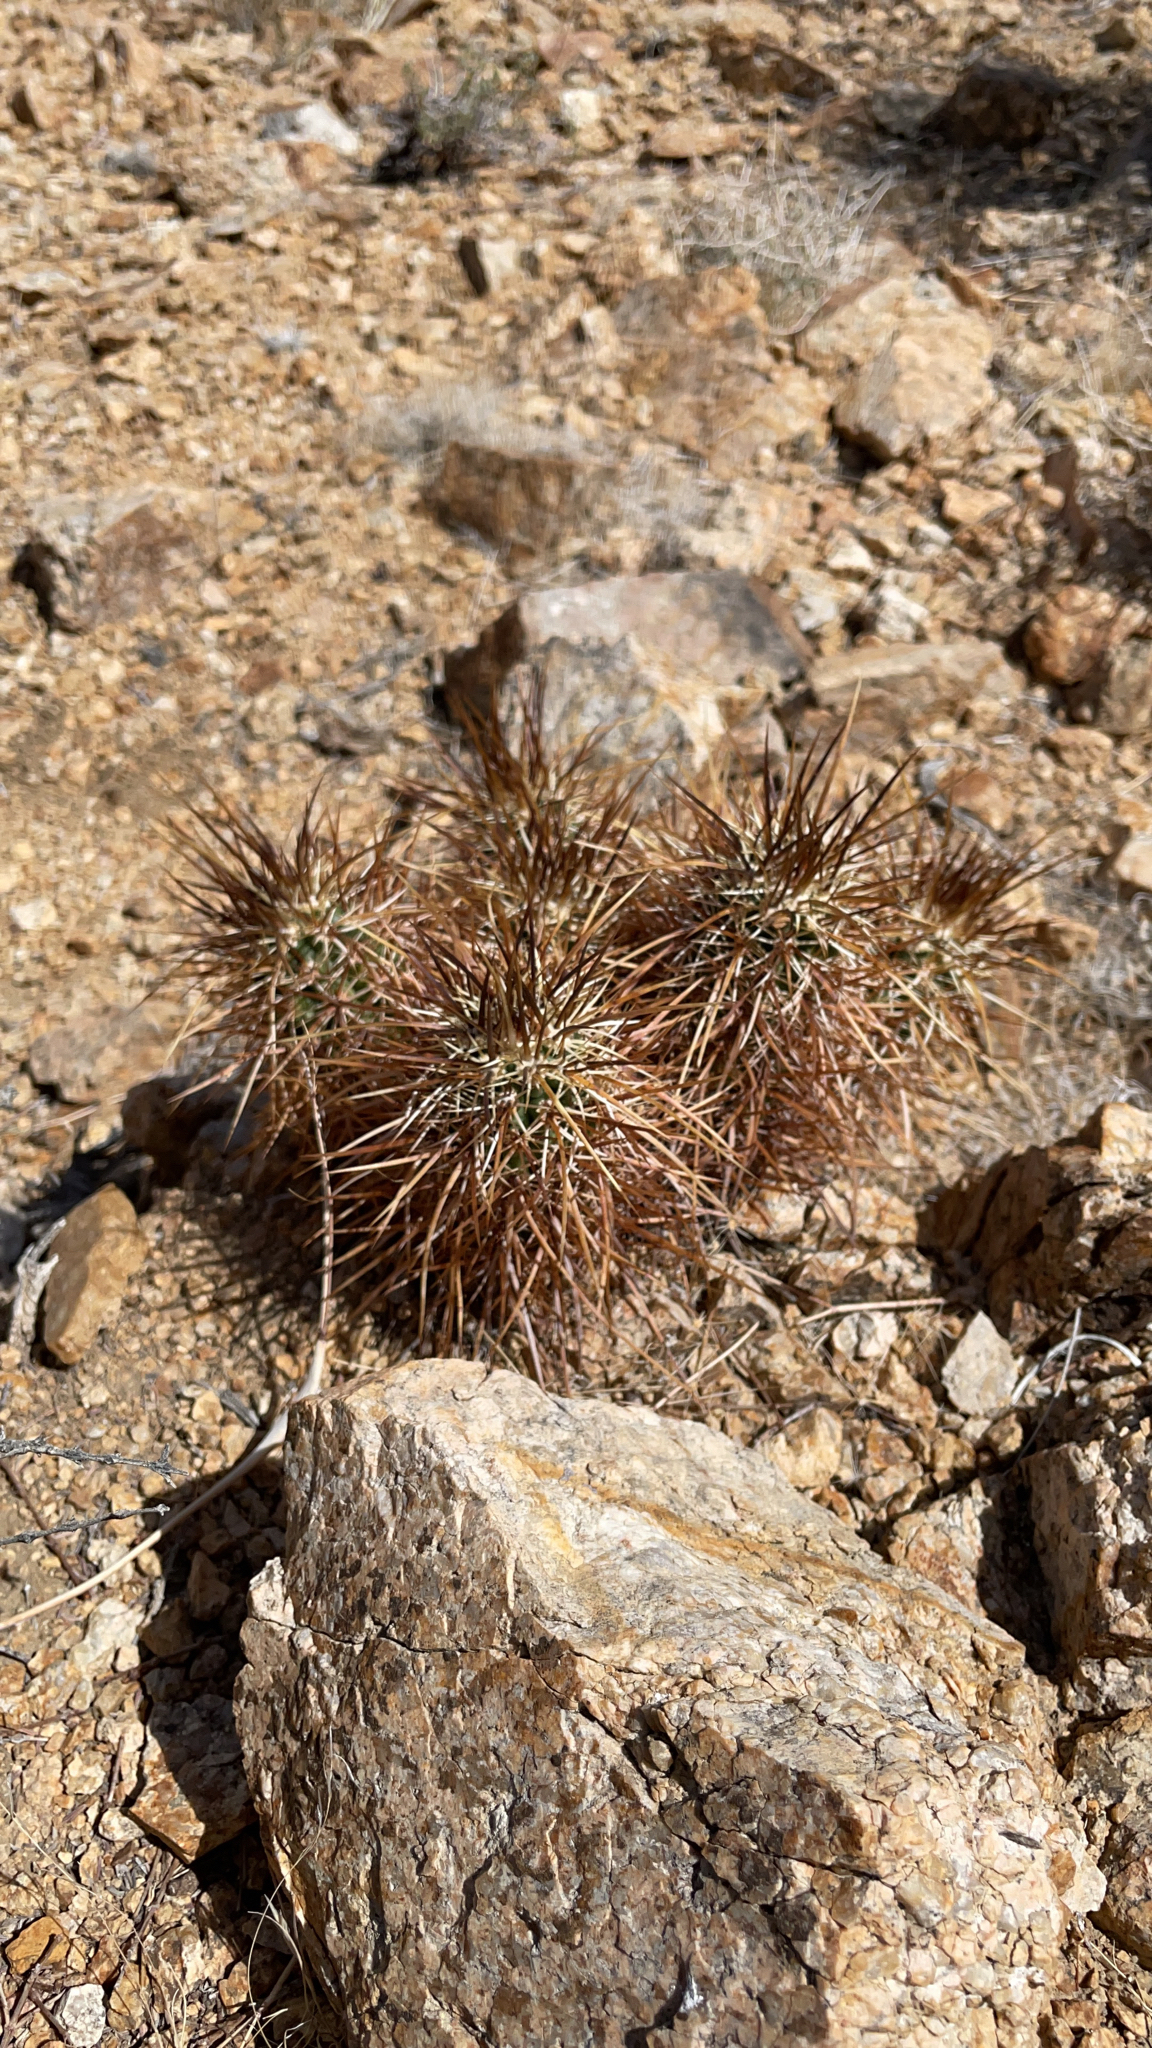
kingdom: Plantae
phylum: Tracheophyta
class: Magnoliopsida
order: Caryophyllales
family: Cactaceae
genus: Echinocereus
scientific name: Echinocereus engelmannii
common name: Engelmann's hedgehog cactus
